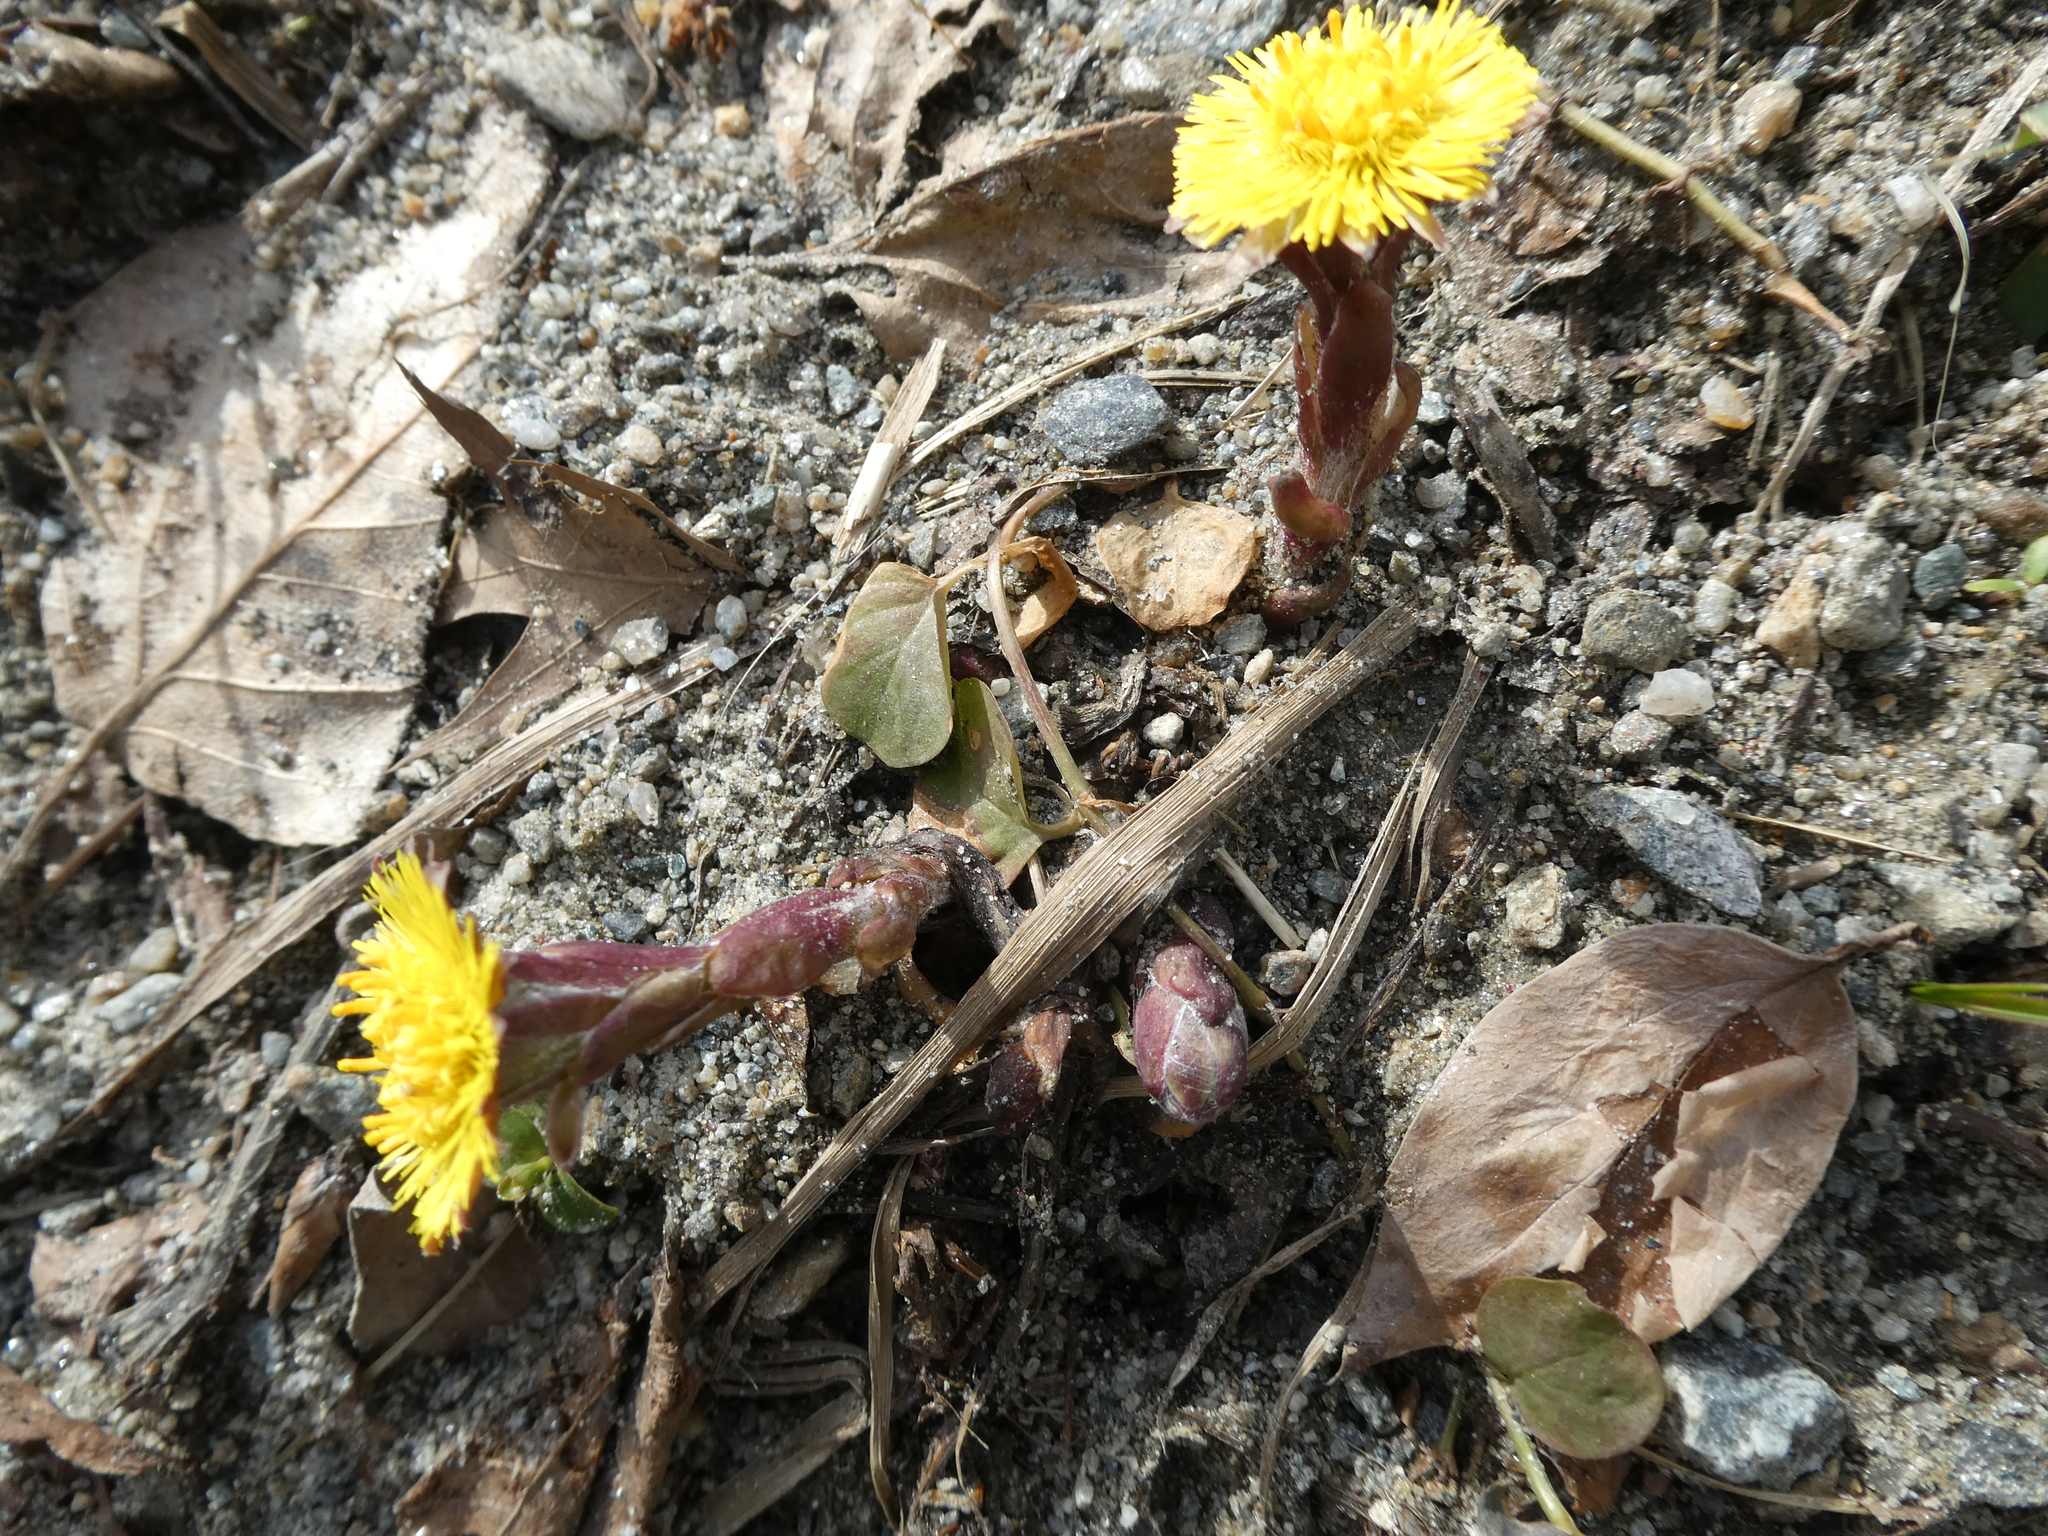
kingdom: Plantae
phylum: Tracheophyta
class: Magnoliopsida
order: Asterales
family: Asteraceae
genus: Tussilago
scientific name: Tussilago farfara
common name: Coltsfoot
